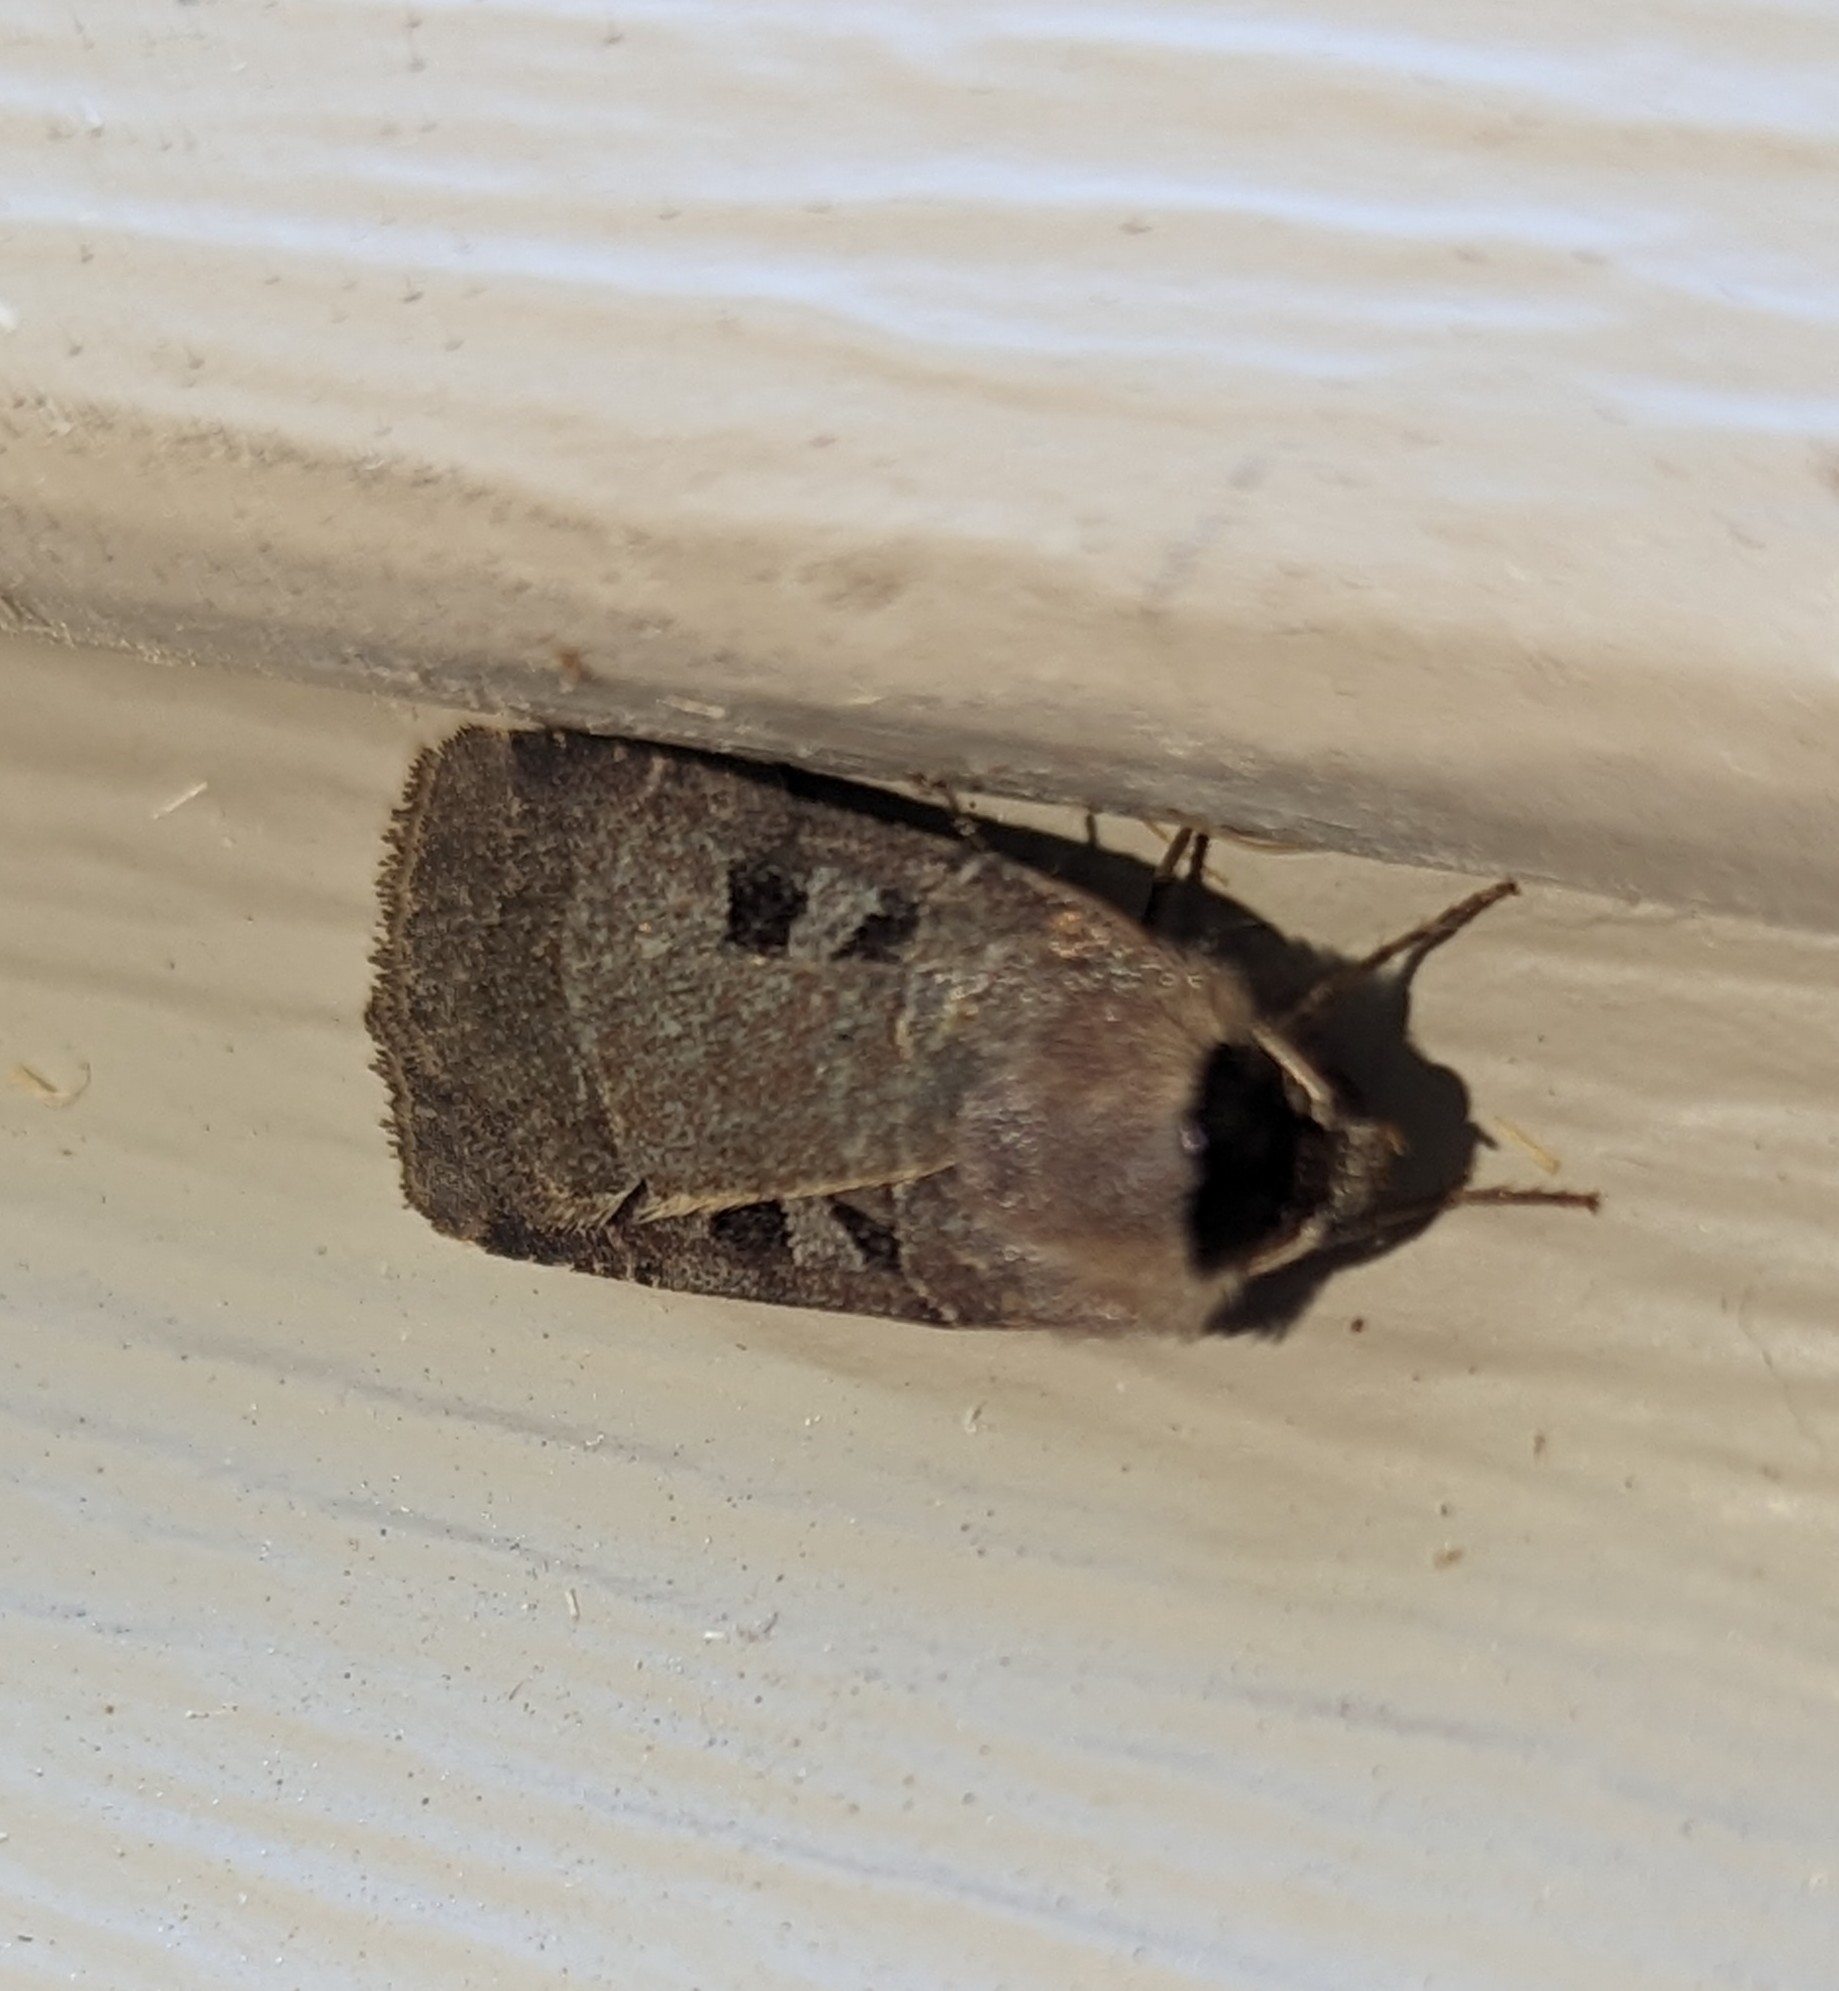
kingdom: Animalia
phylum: Arthropoda
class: Insecta
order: Lepidoptera
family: Noctuidae
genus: Agnorisma
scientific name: Agnorisma bugrai
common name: Collared dart
